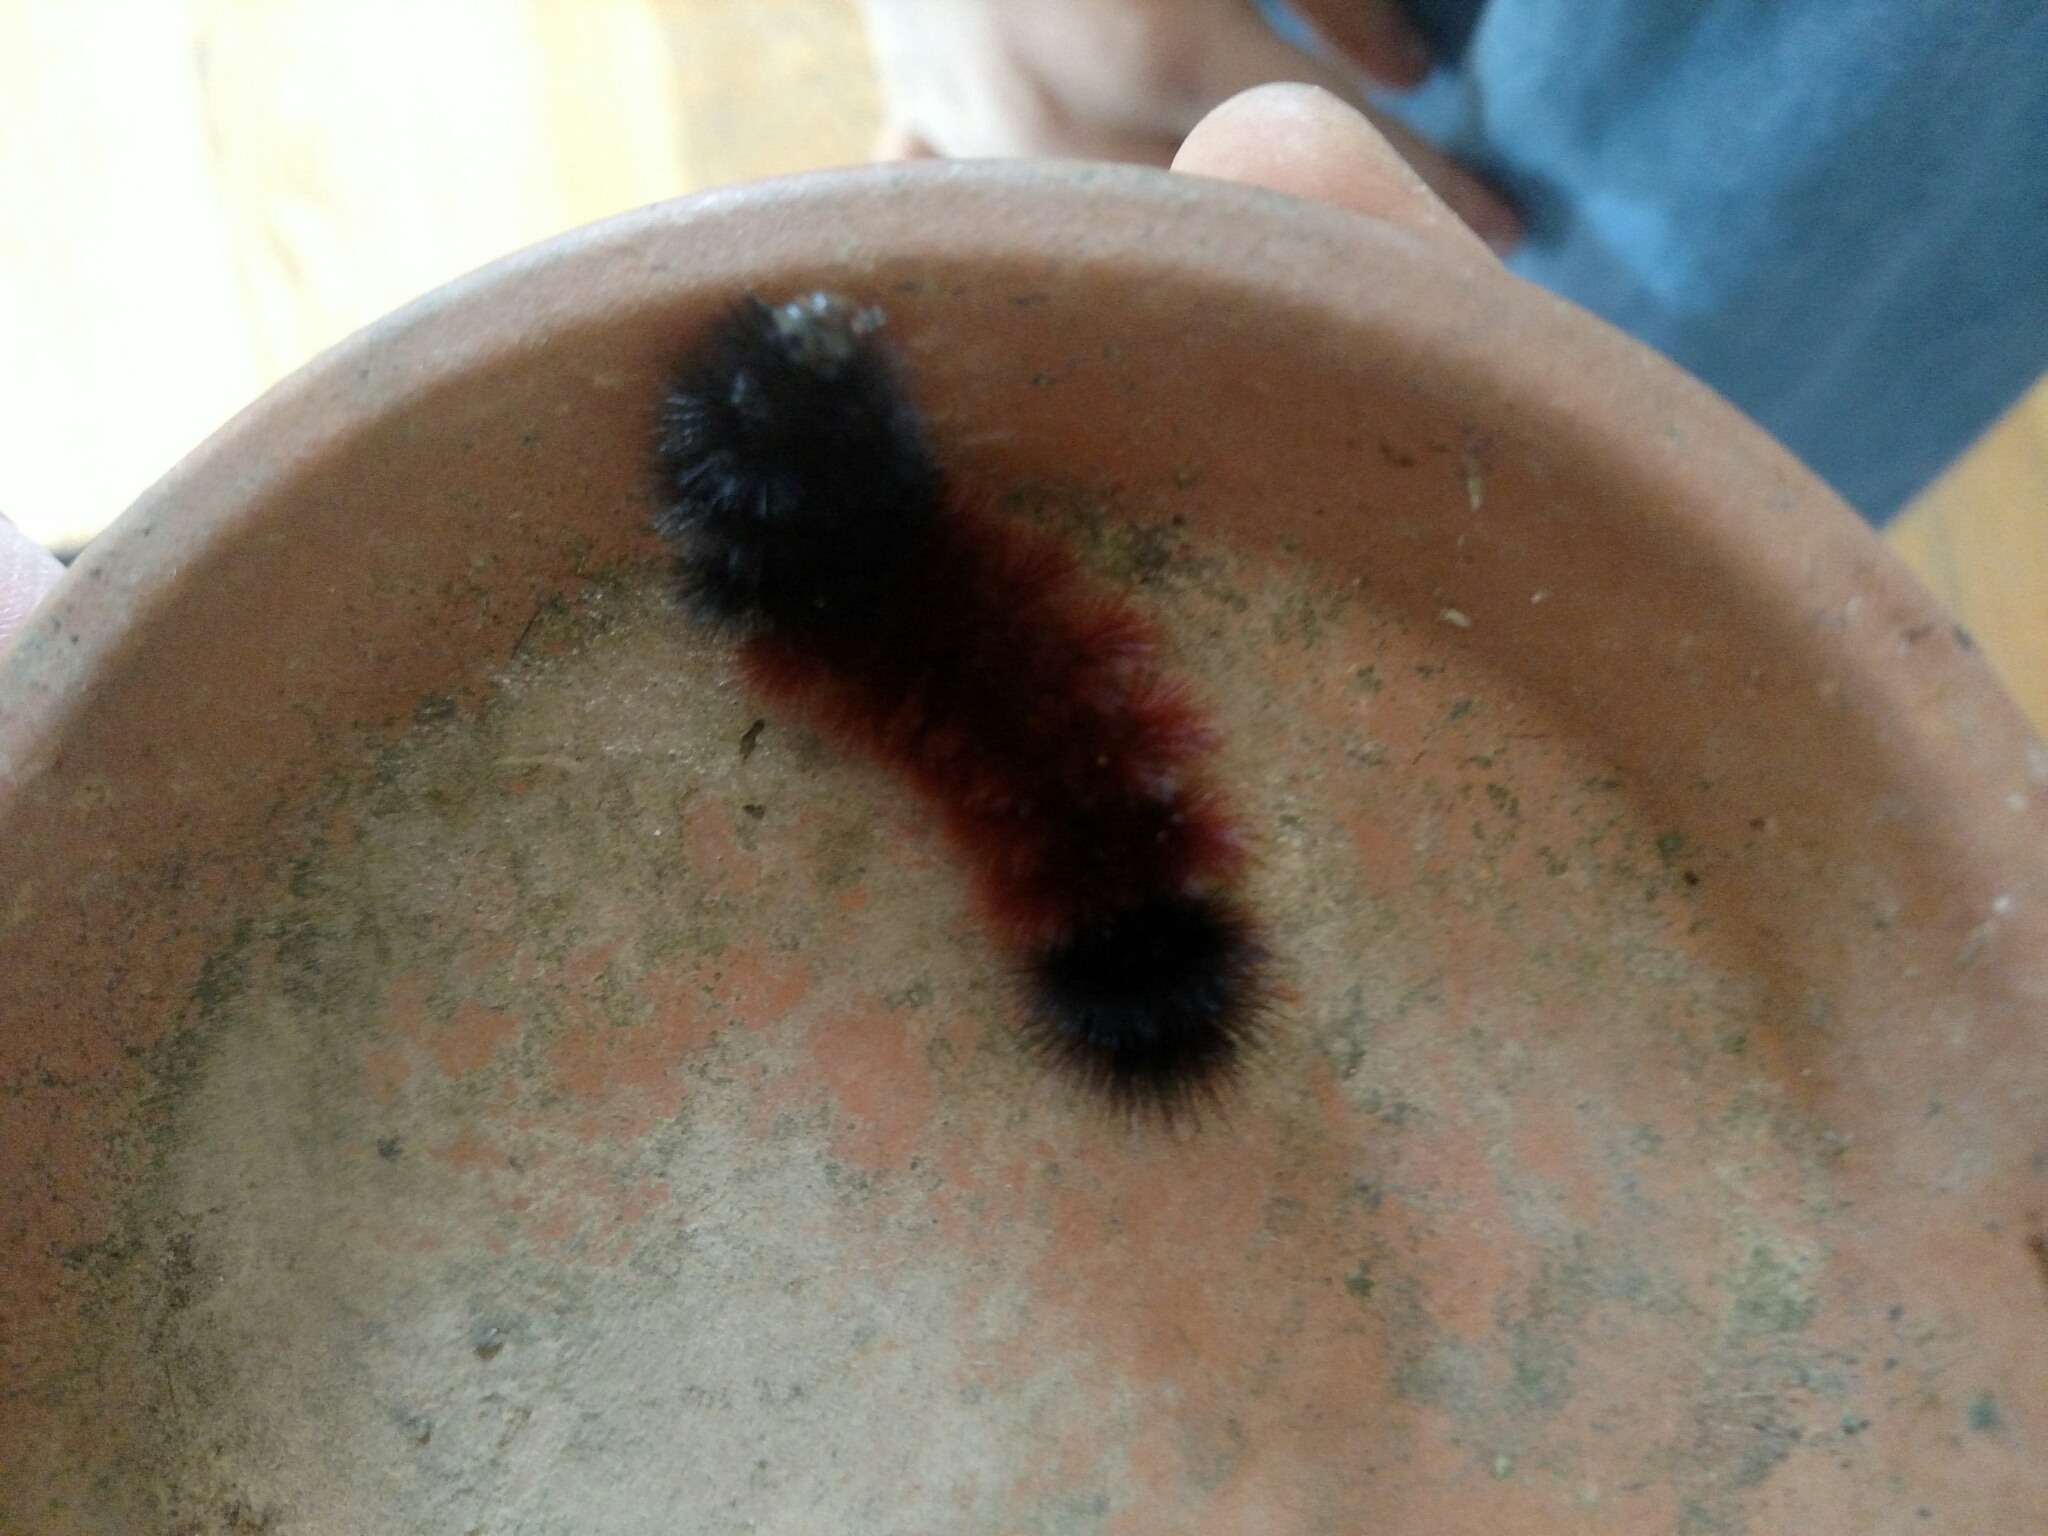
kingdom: Animalia
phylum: Arthropoda
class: Insecta
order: Lepidoptera
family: Erebidae
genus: Pyrrharctia
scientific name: Pyrrharctia isabella
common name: Isabella tiger moth
